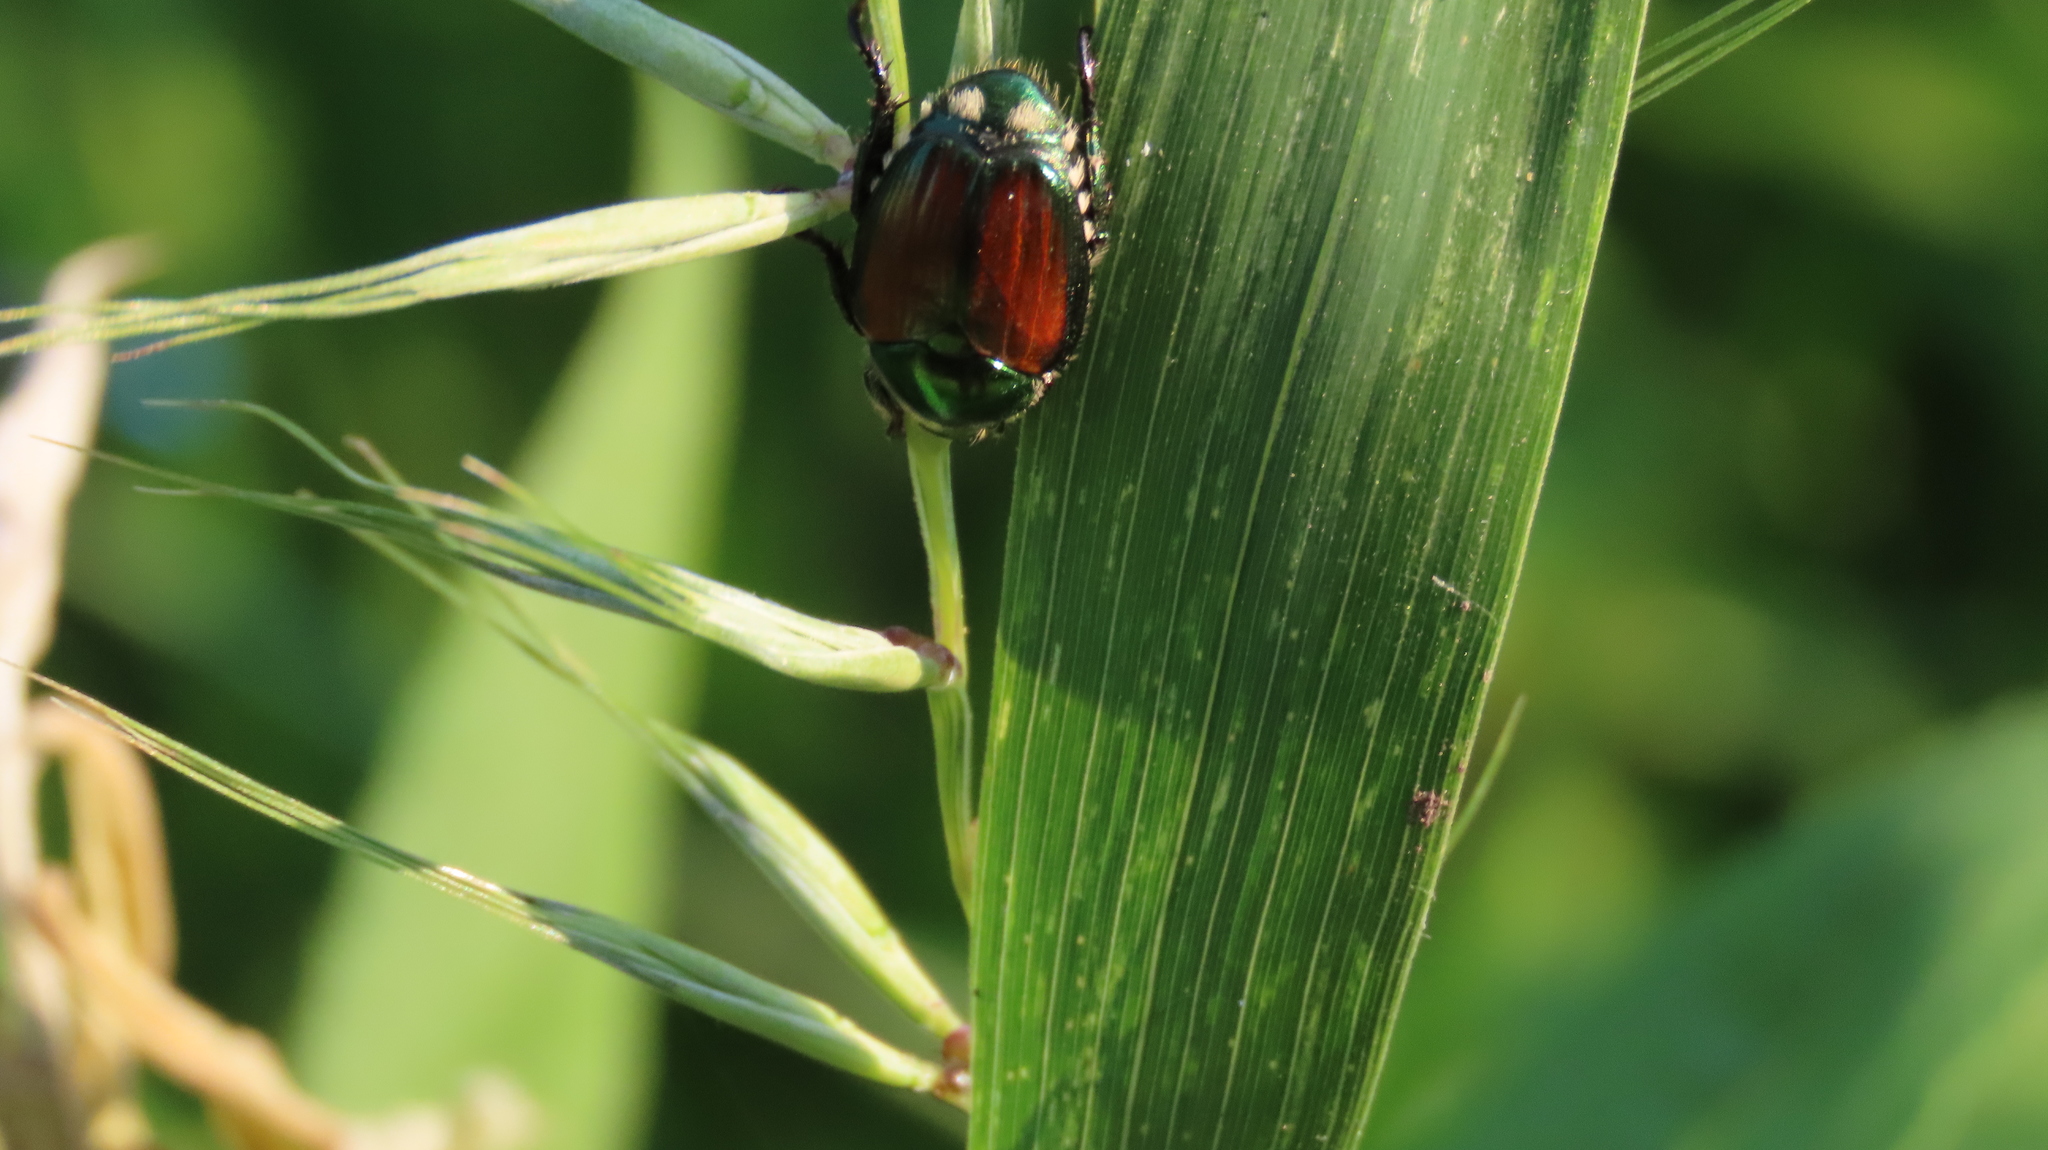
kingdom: Animalia
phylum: Arthropoda
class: Insecta
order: Coleoptera
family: Scarabaeidae
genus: Popillia
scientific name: Popillia japonica
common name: Japanese beetle
